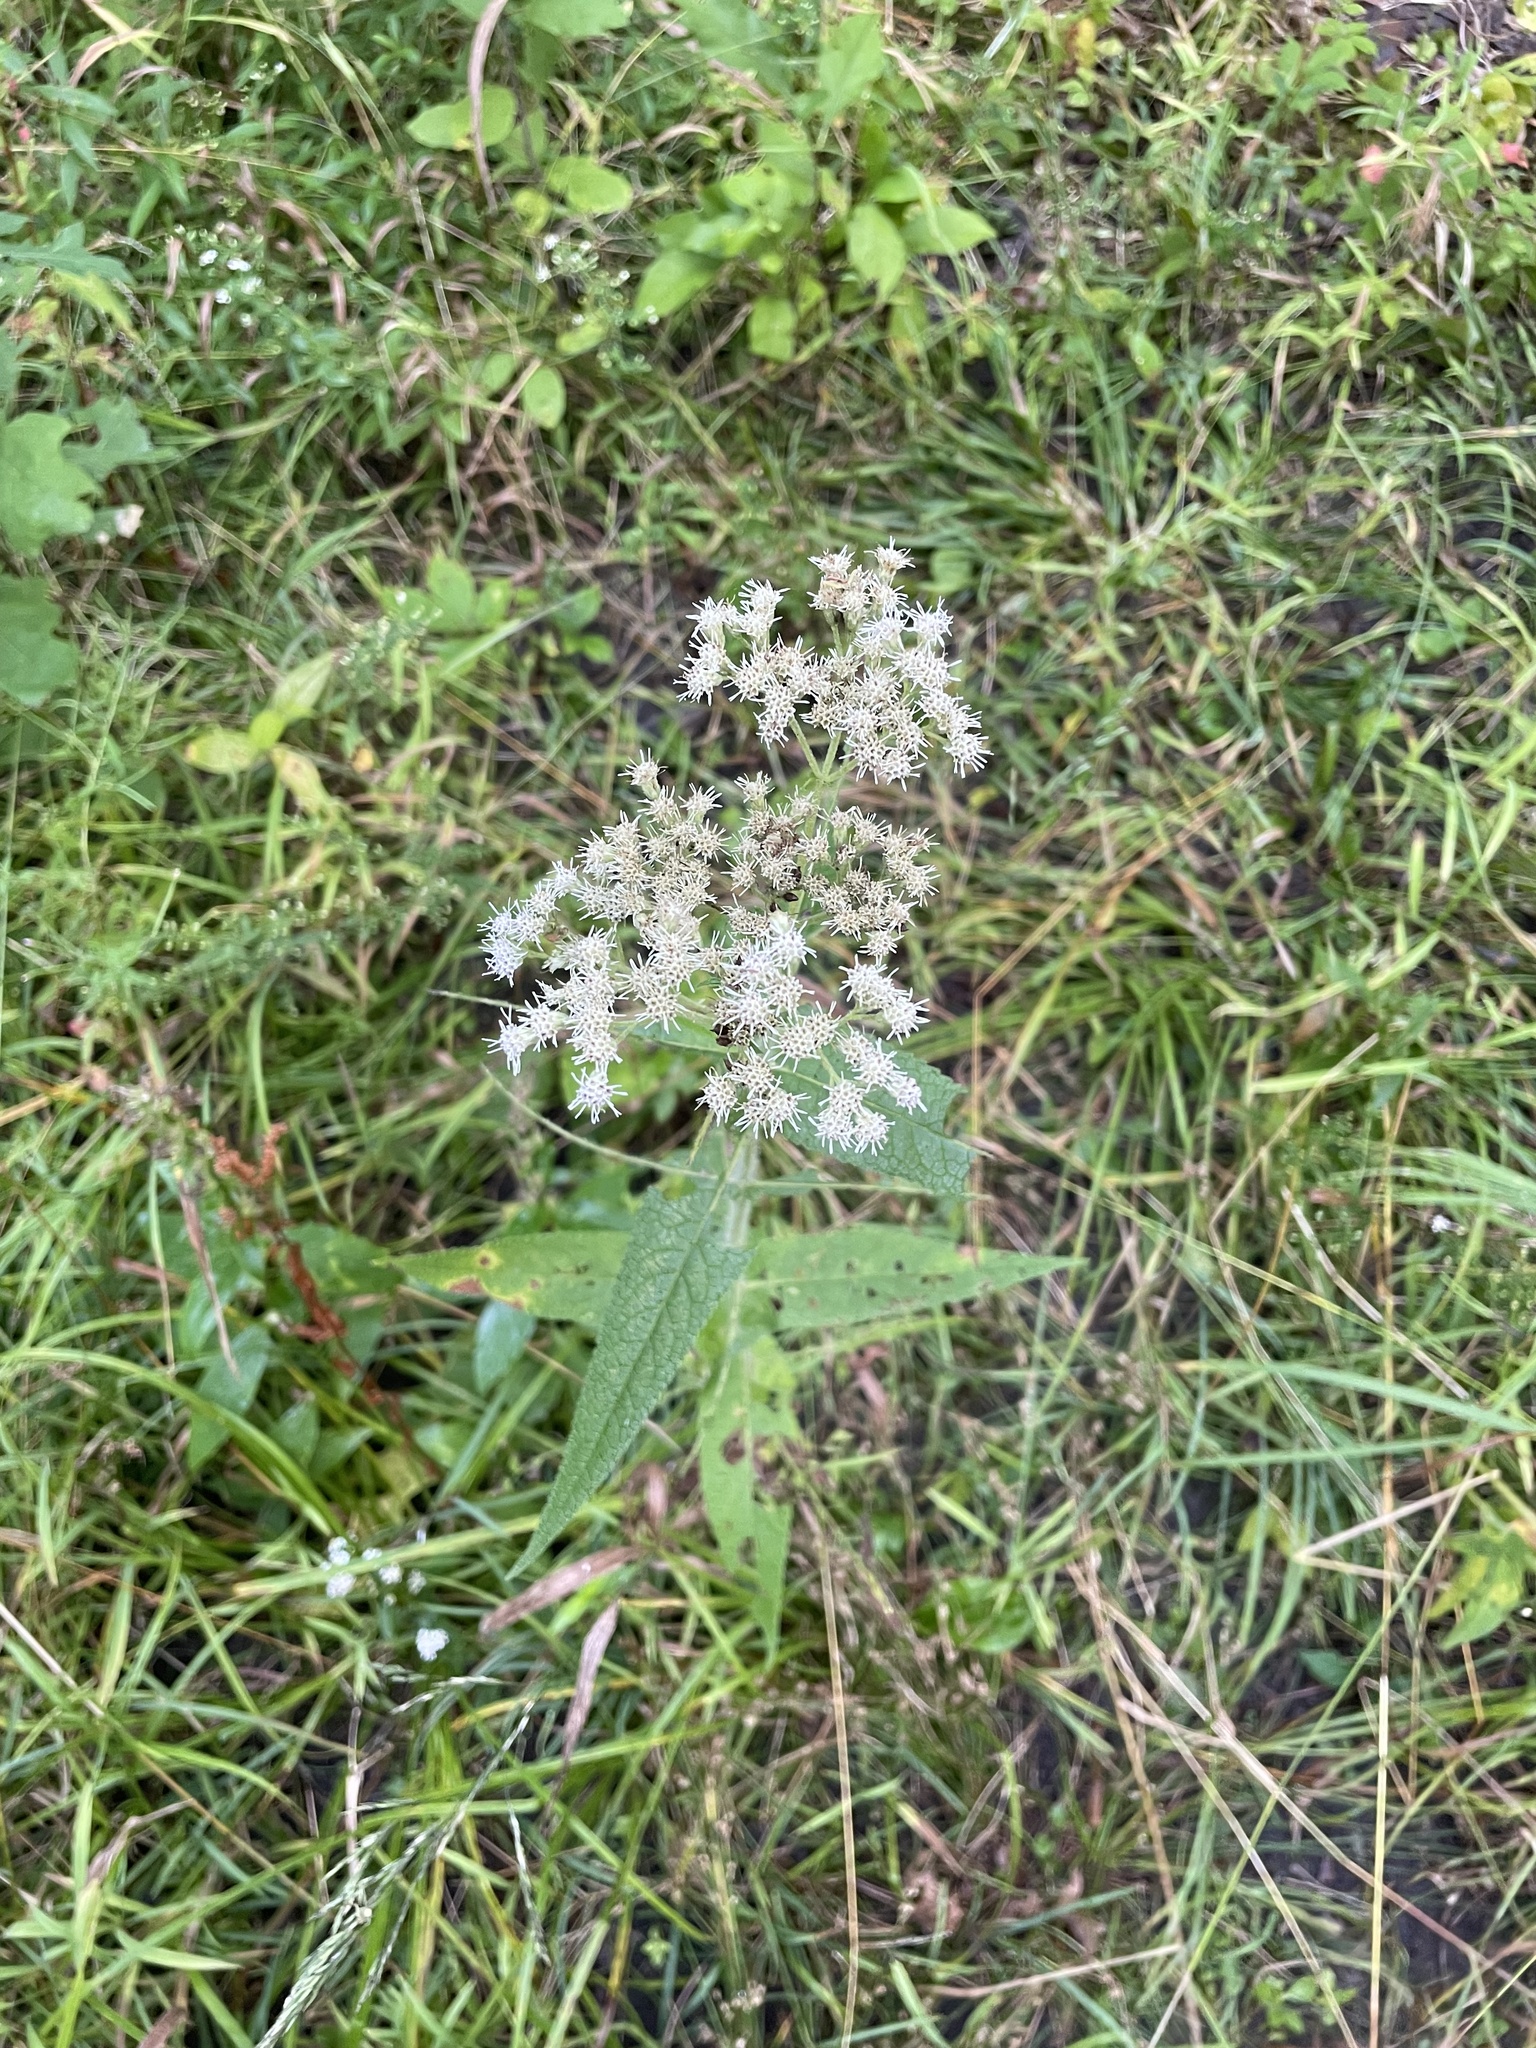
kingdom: Plantae
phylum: Tracheophyta
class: Magnoliopsida
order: Asterales
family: Asteraceae
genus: Eupatorium
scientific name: Eupatorium perfoliatum
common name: Boneset
